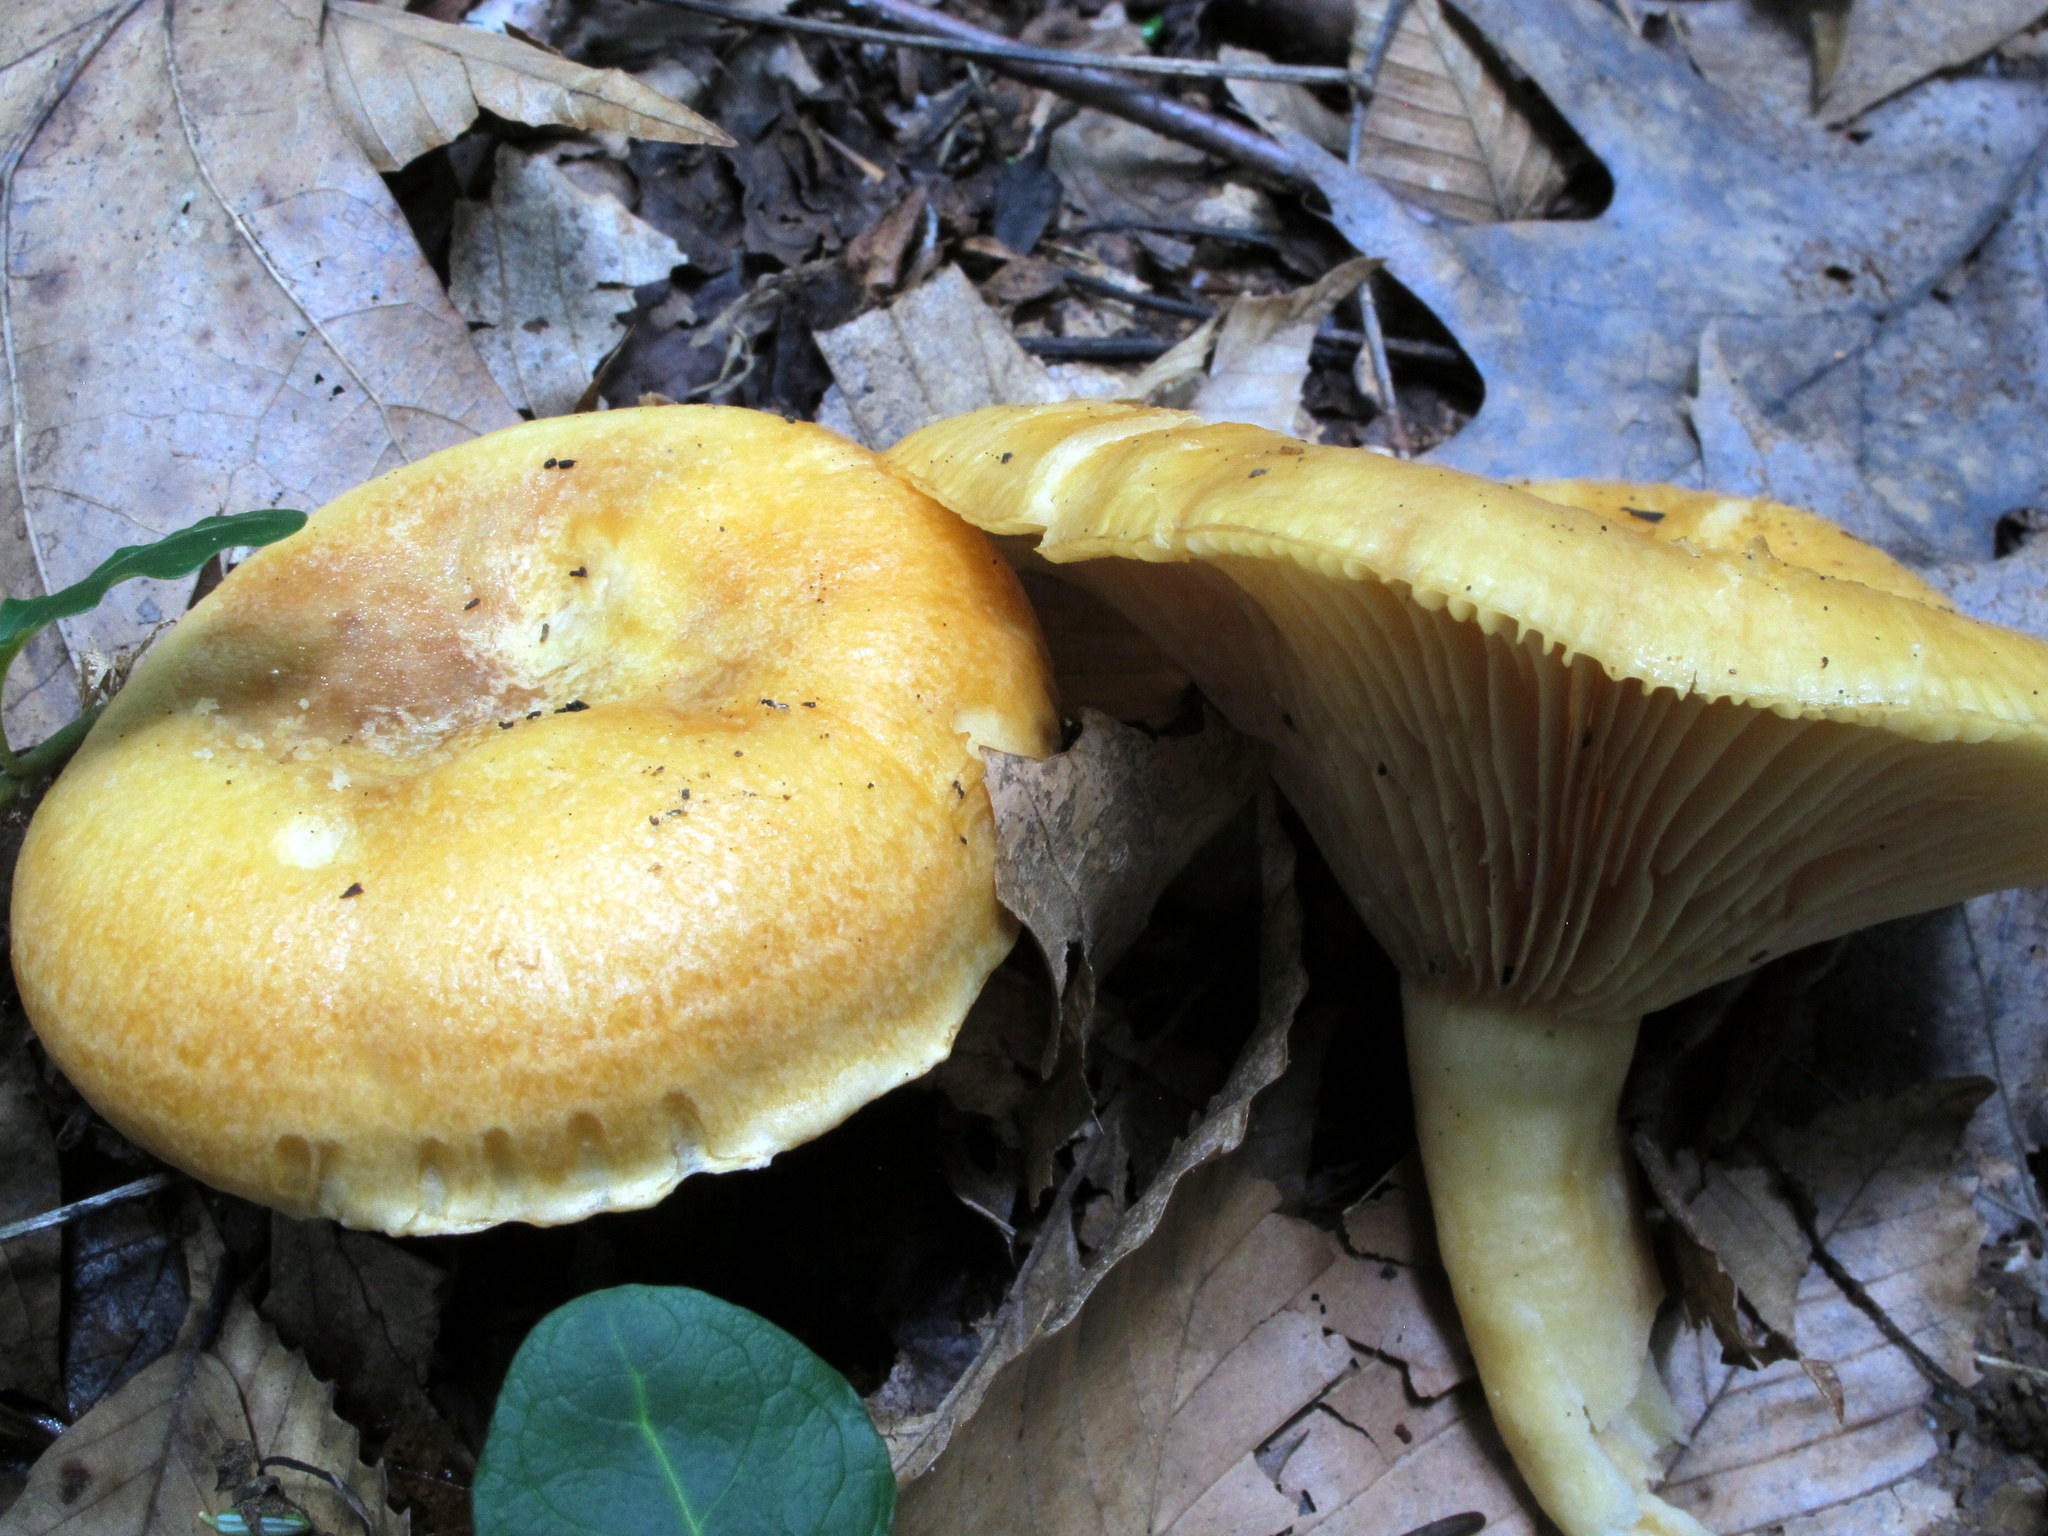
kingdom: Fungi
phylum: Basidiomycota
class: Agaricomycetes
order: Russulales
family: Russulaceae
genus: Lactarius
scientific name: Lactarius croceus
